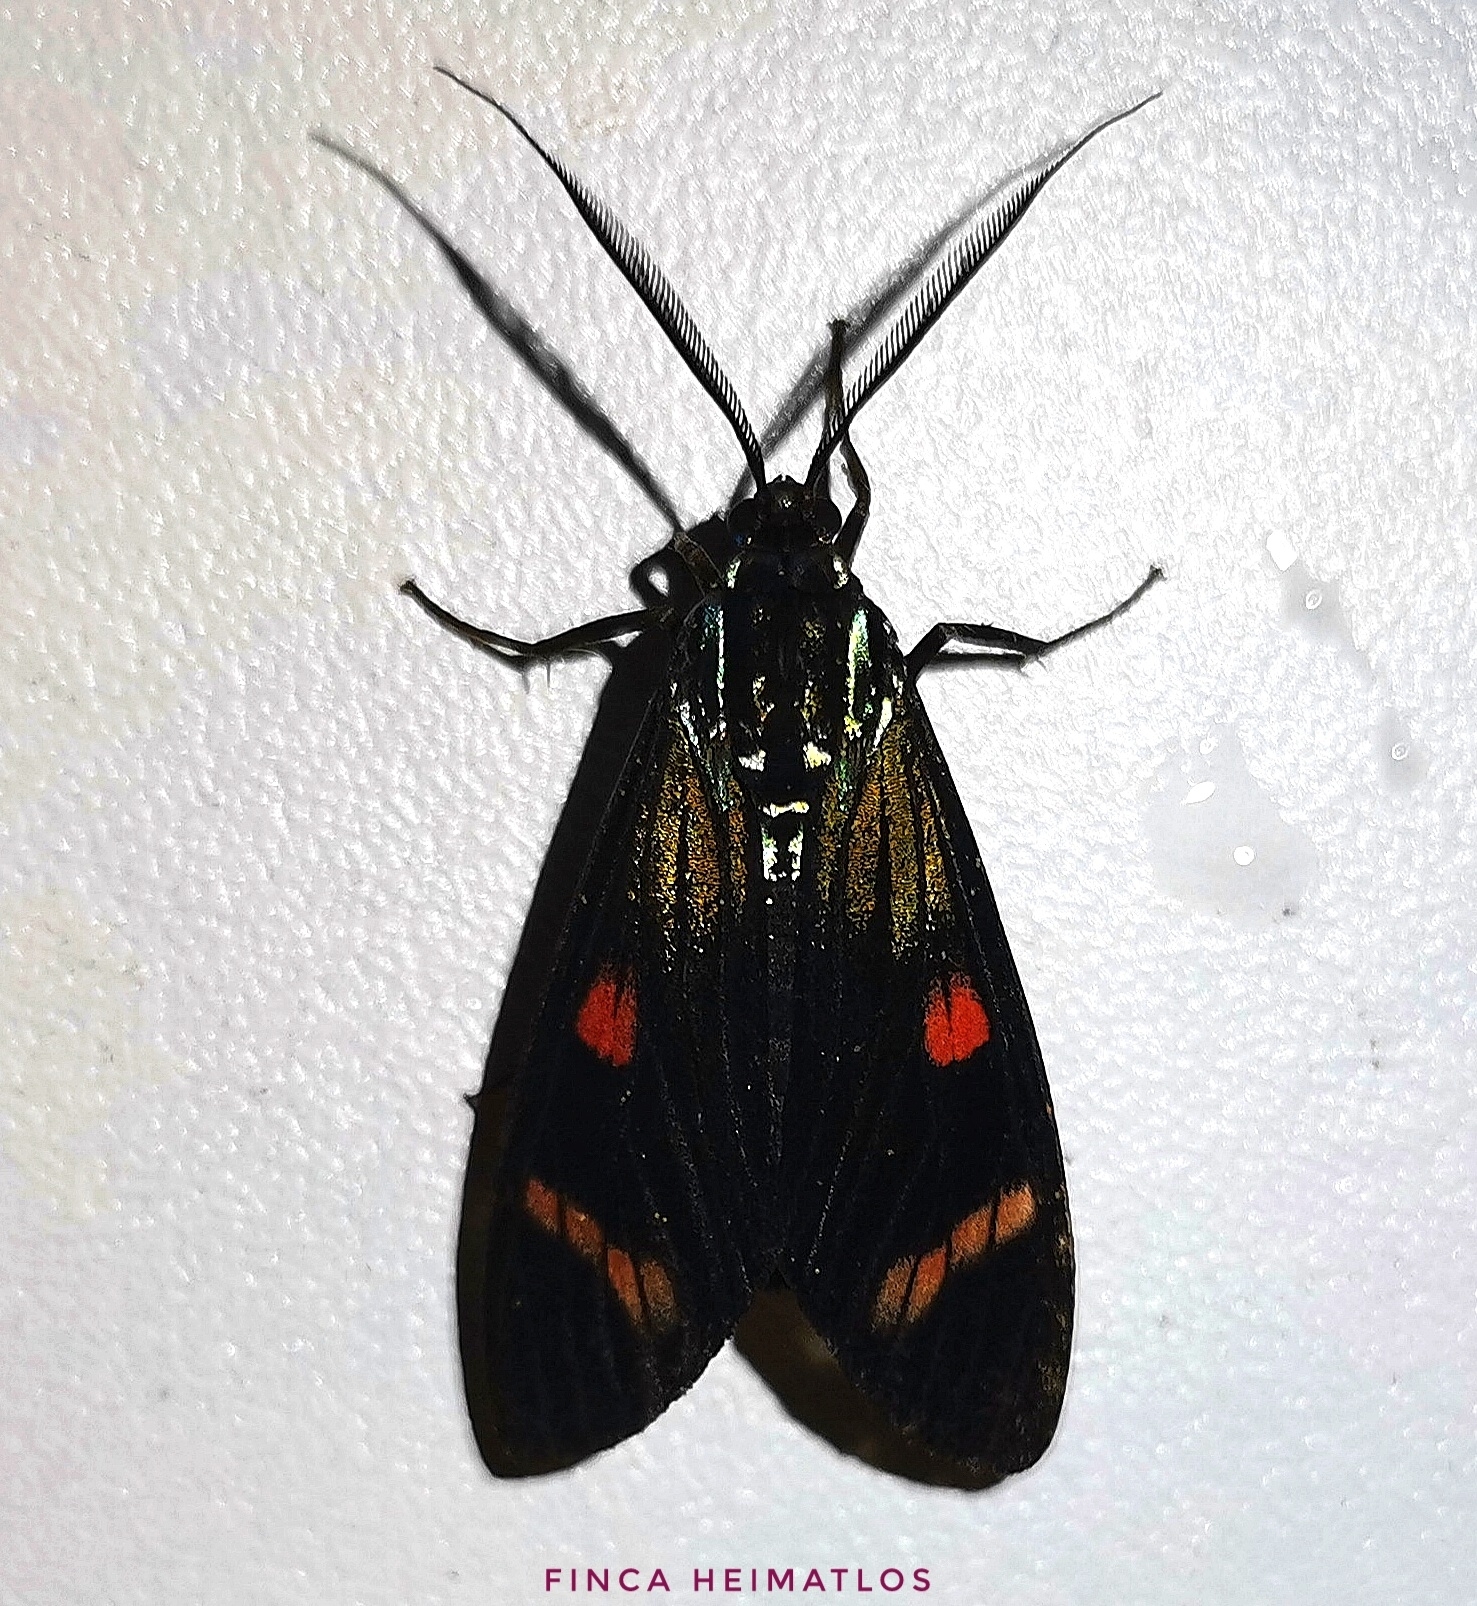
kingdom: Animalia
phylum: Arthropoda
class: Insecta
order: Lepidoptera
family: Erebidae
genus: Diospage
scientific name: Diospage splendens
